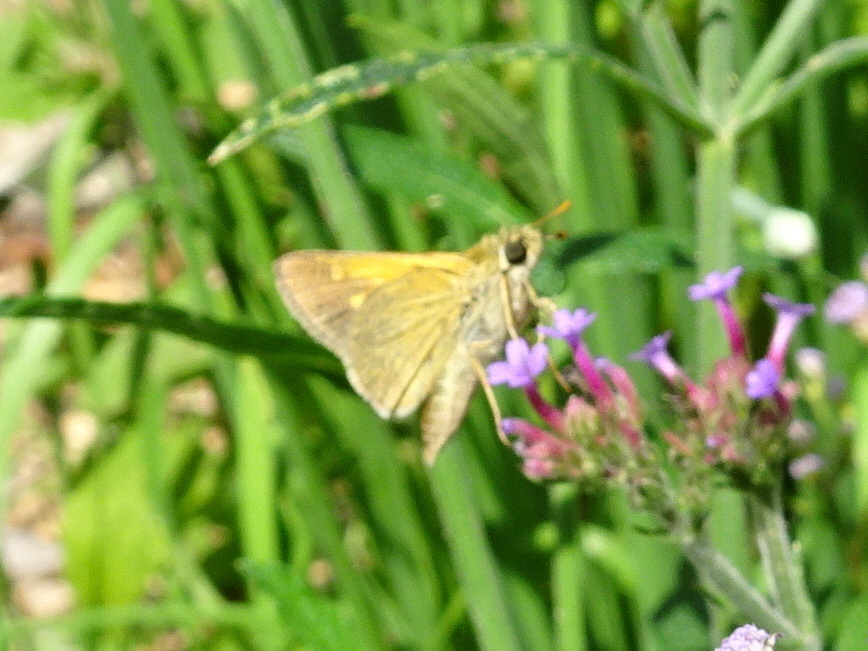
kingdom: Animalia
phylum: Arthropoda
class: Insecta
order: Lepidoptera
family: Hesperiidae
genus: Polites
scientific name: Polites themistocles
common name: Tawny-edged skipper
